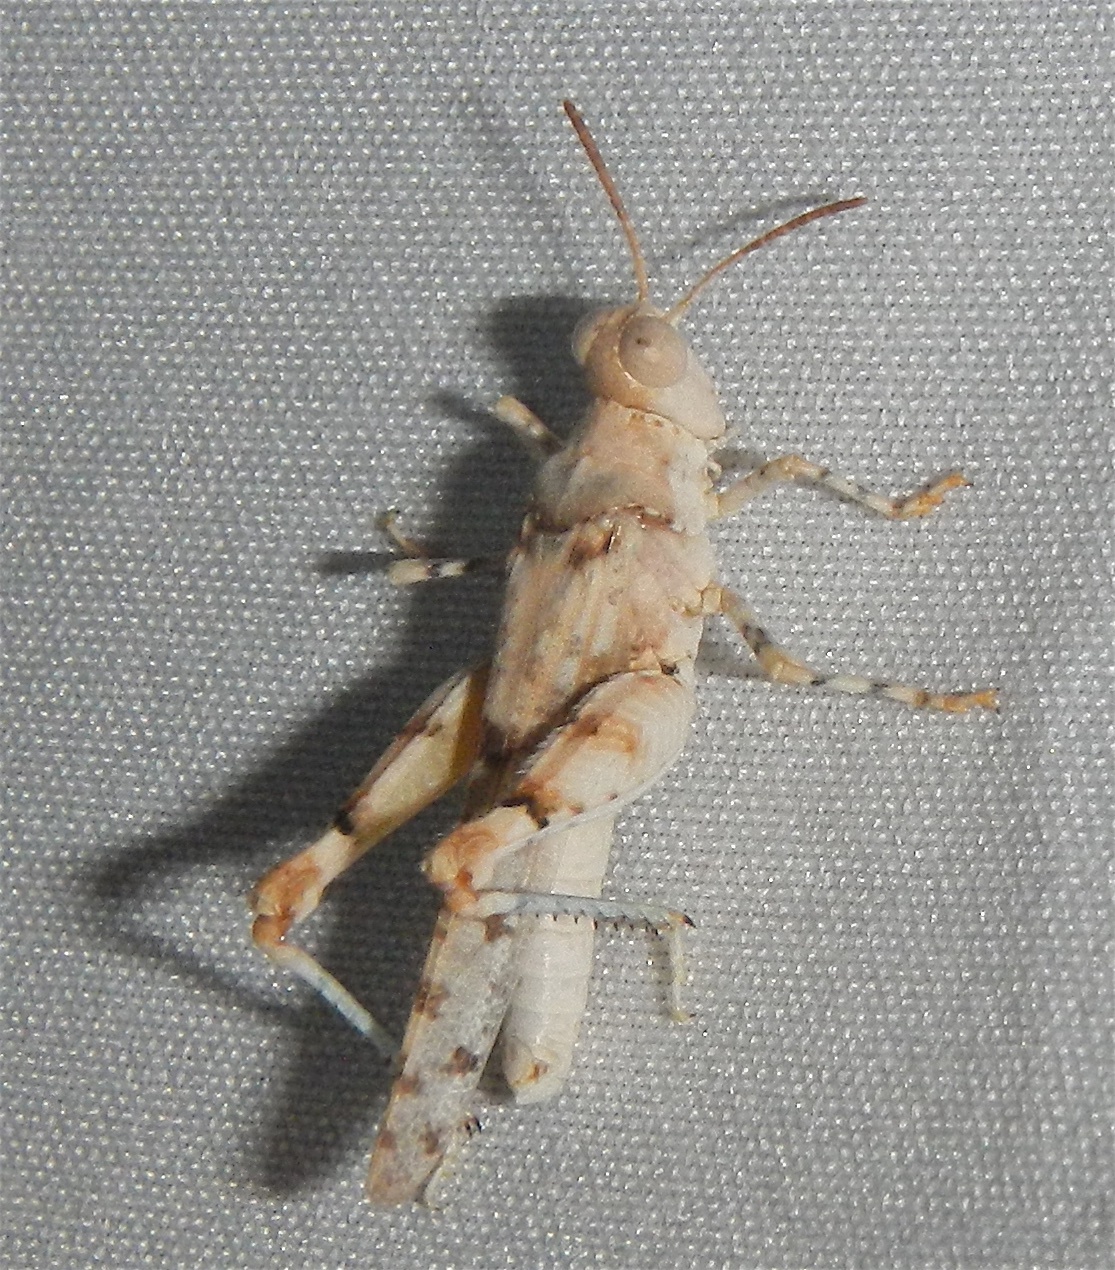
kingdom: Animalia
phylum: Arthropoda
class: Insecta
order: Orthoptera
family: Acrididae
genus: Cibolacris
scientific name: Cibolacris parviceps
